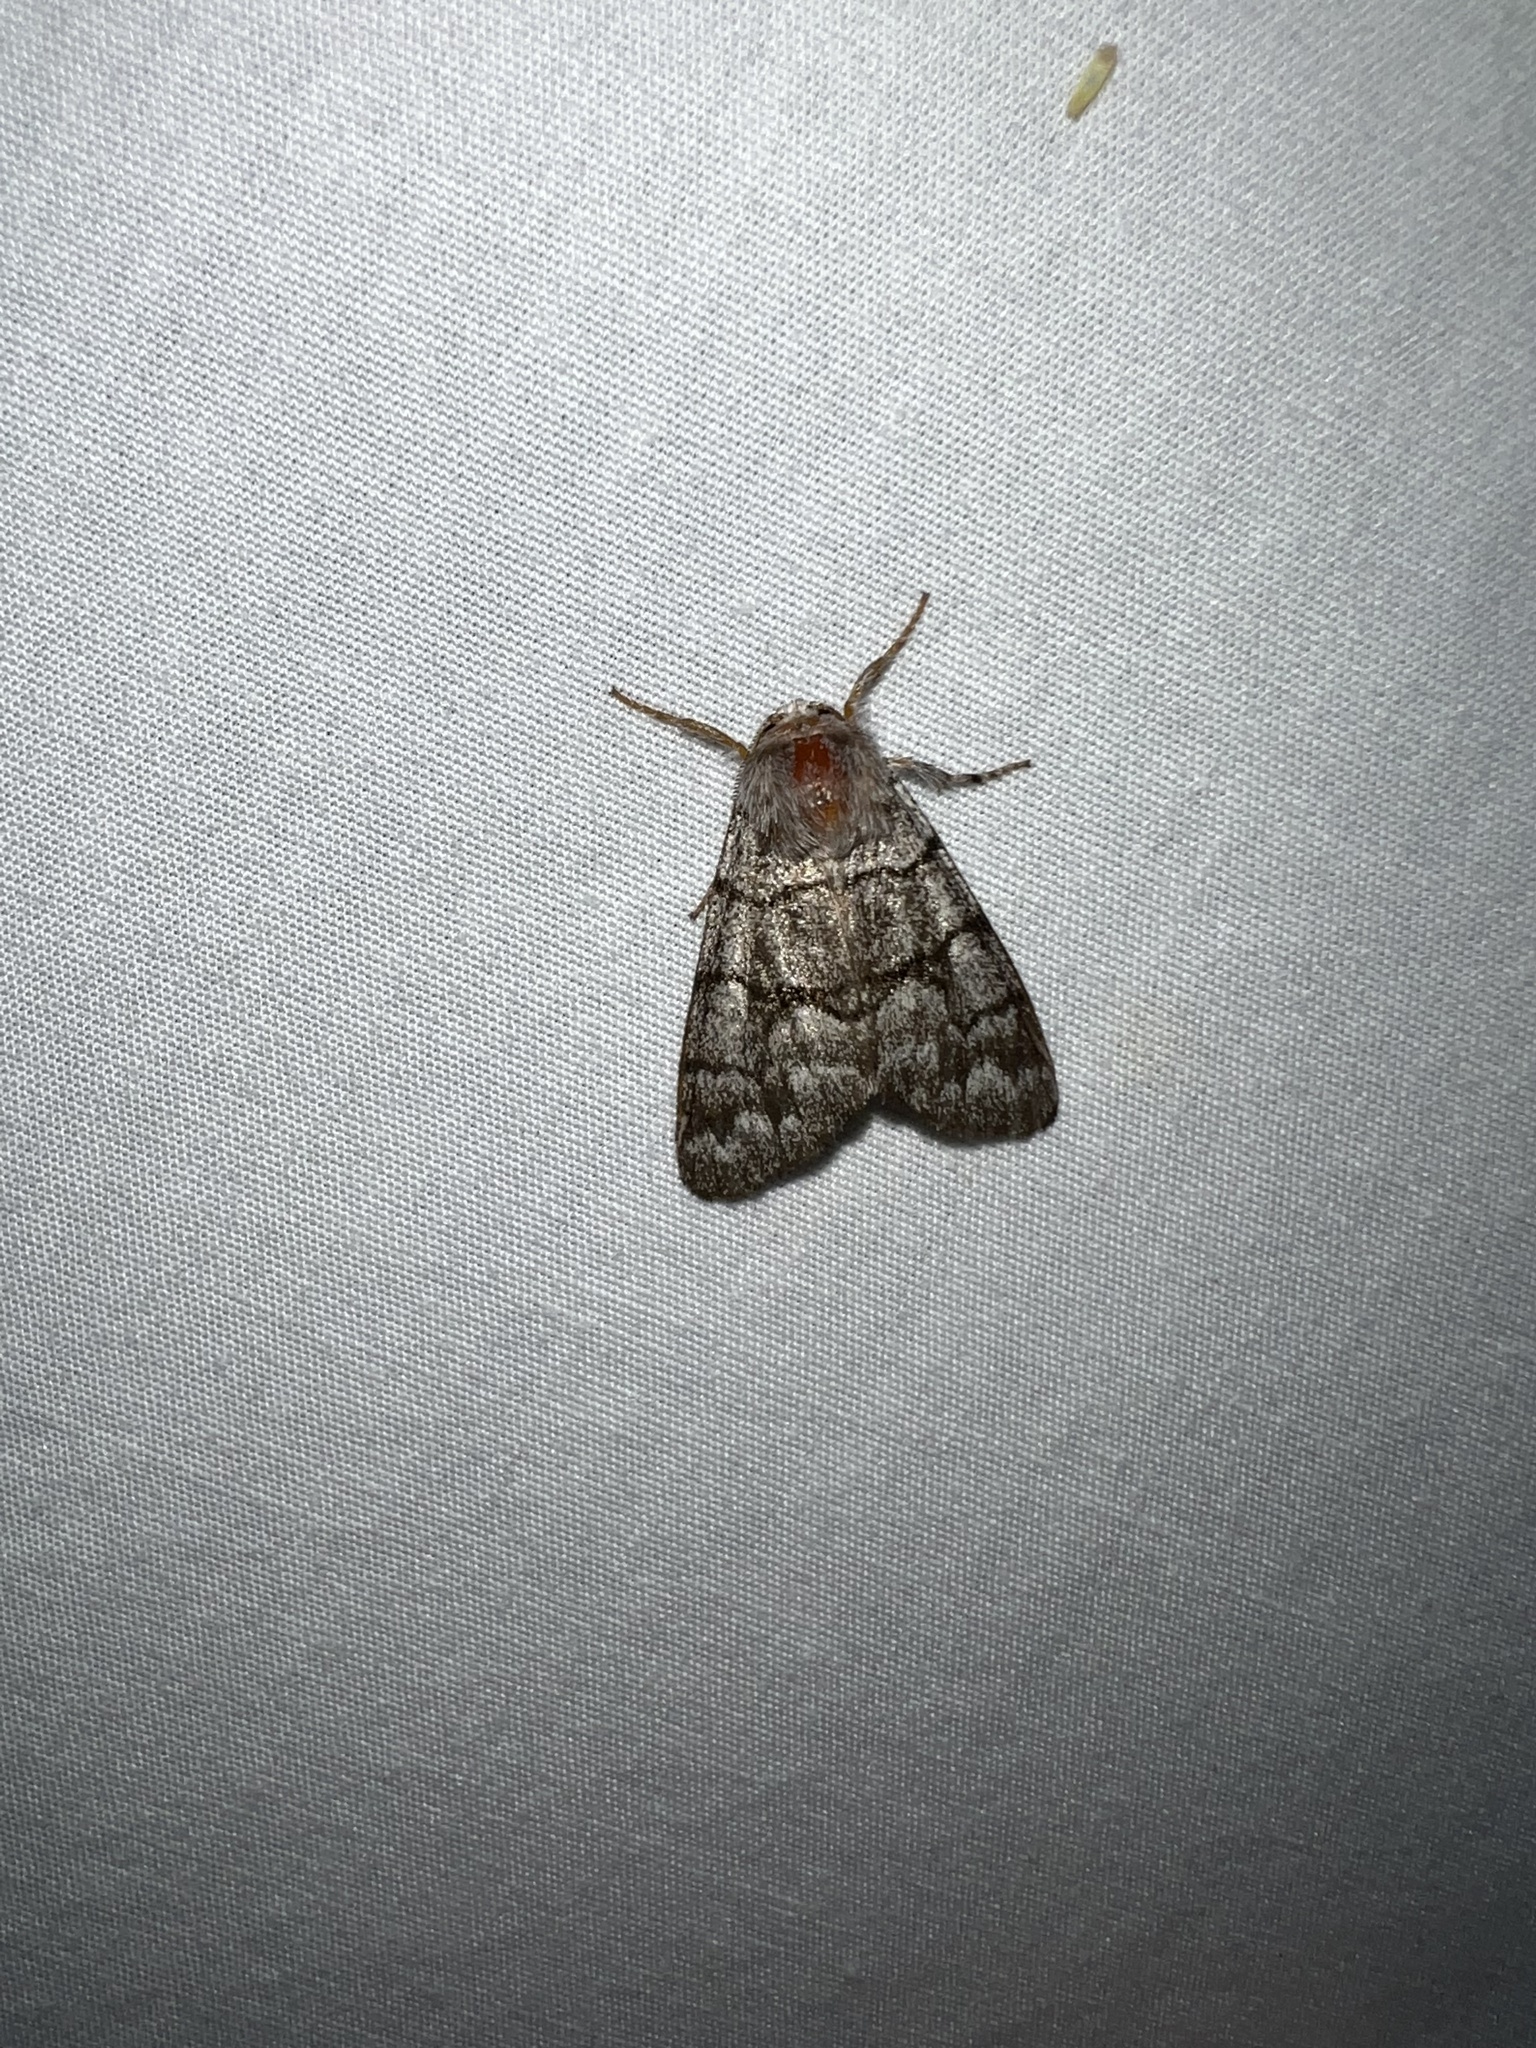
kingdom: Animalia
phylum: Arthropoda
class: Insecta
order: Lepidoptera
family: Noctuidae
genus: Panthea
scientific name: Panthea furcilla
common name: Eastern panthea moth
